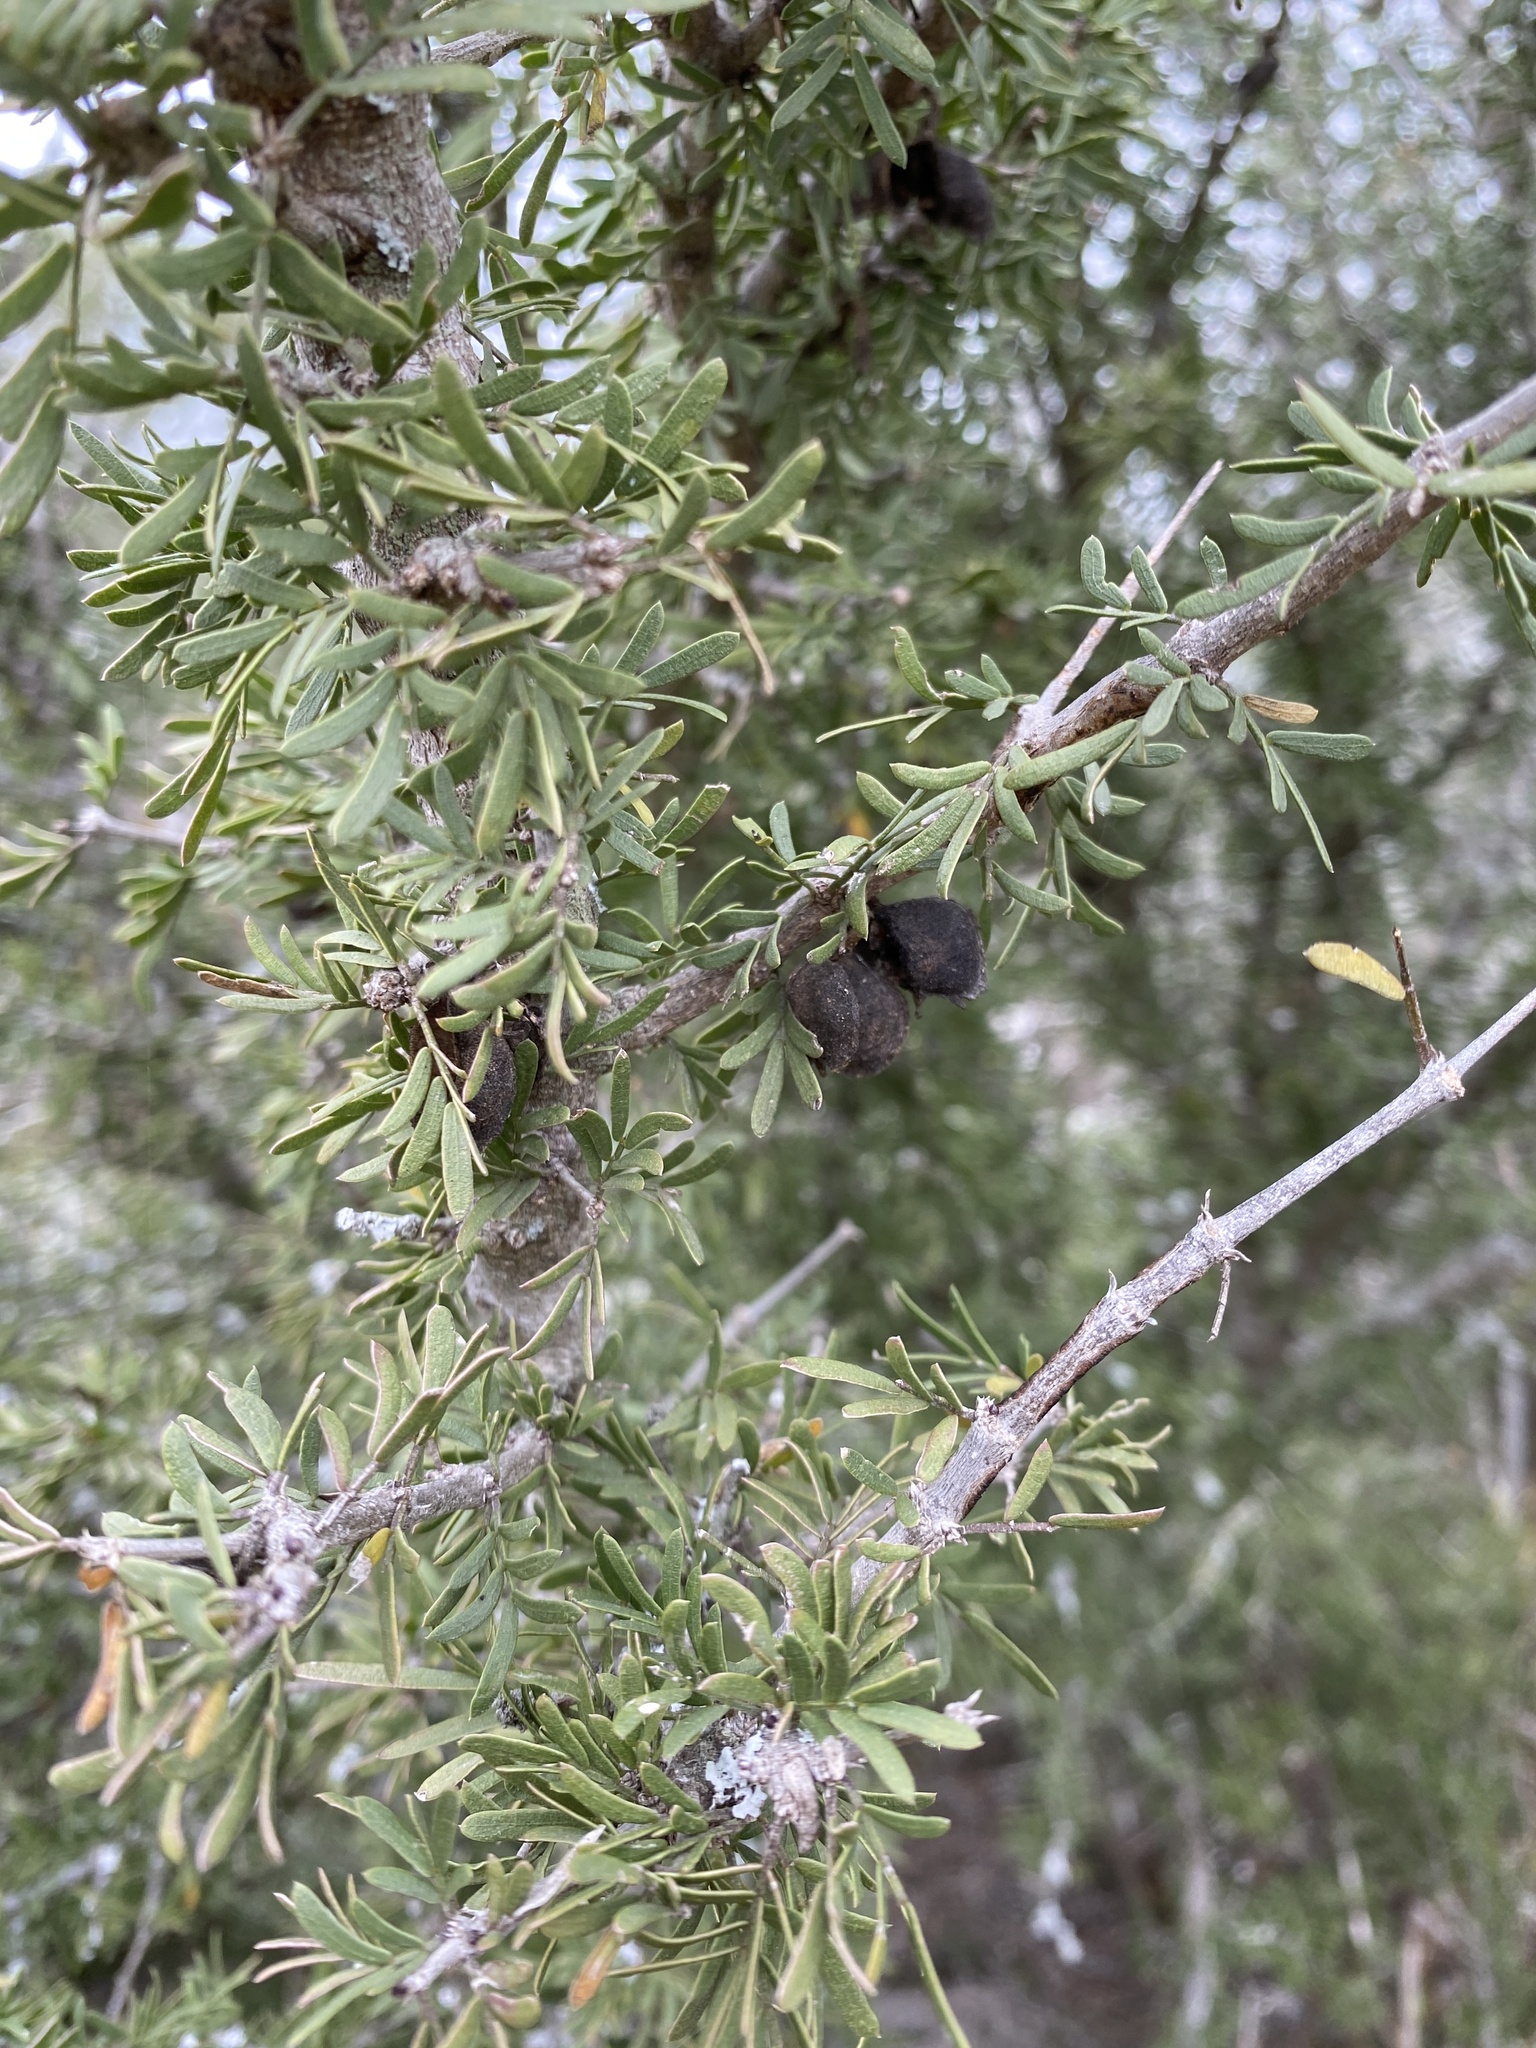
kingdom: Plantae
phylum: Tracheophyta
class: Magnoliopsida
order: Zygophyllales
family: Zygophyllaceae
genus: Porlieria
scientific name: Porlieria angustifolia
